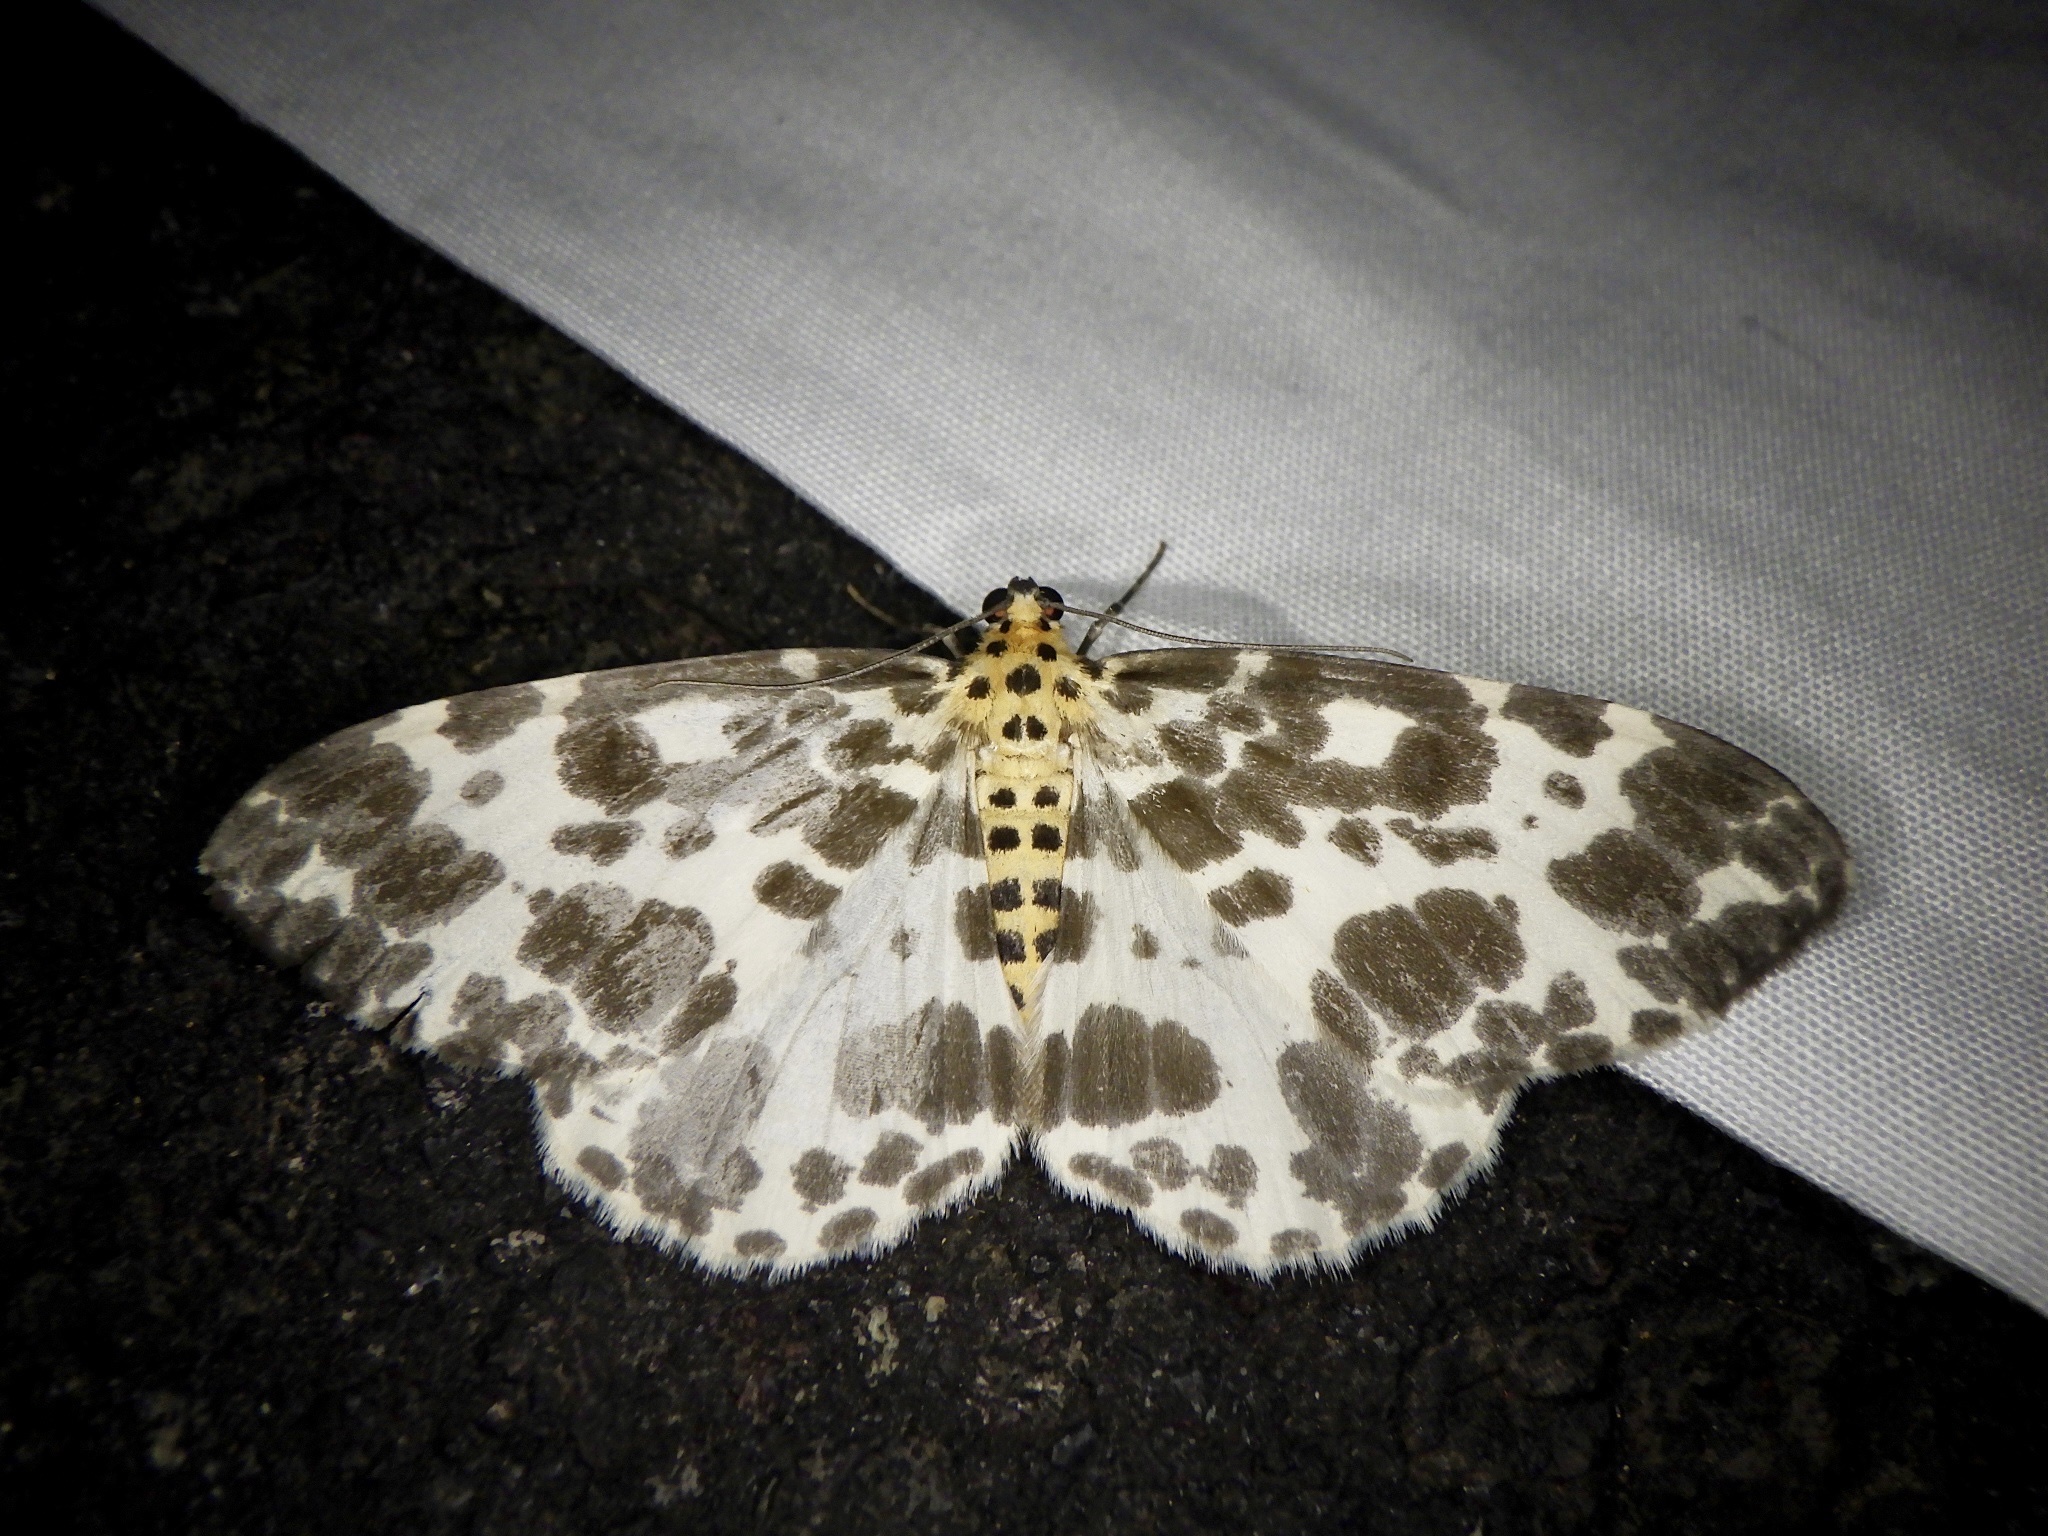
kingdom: Animalia
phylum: Arthropoda
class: Insecta
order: Lepidoptera
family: Geometridae
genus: Dilophodes
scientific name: Dilophodes elegans
